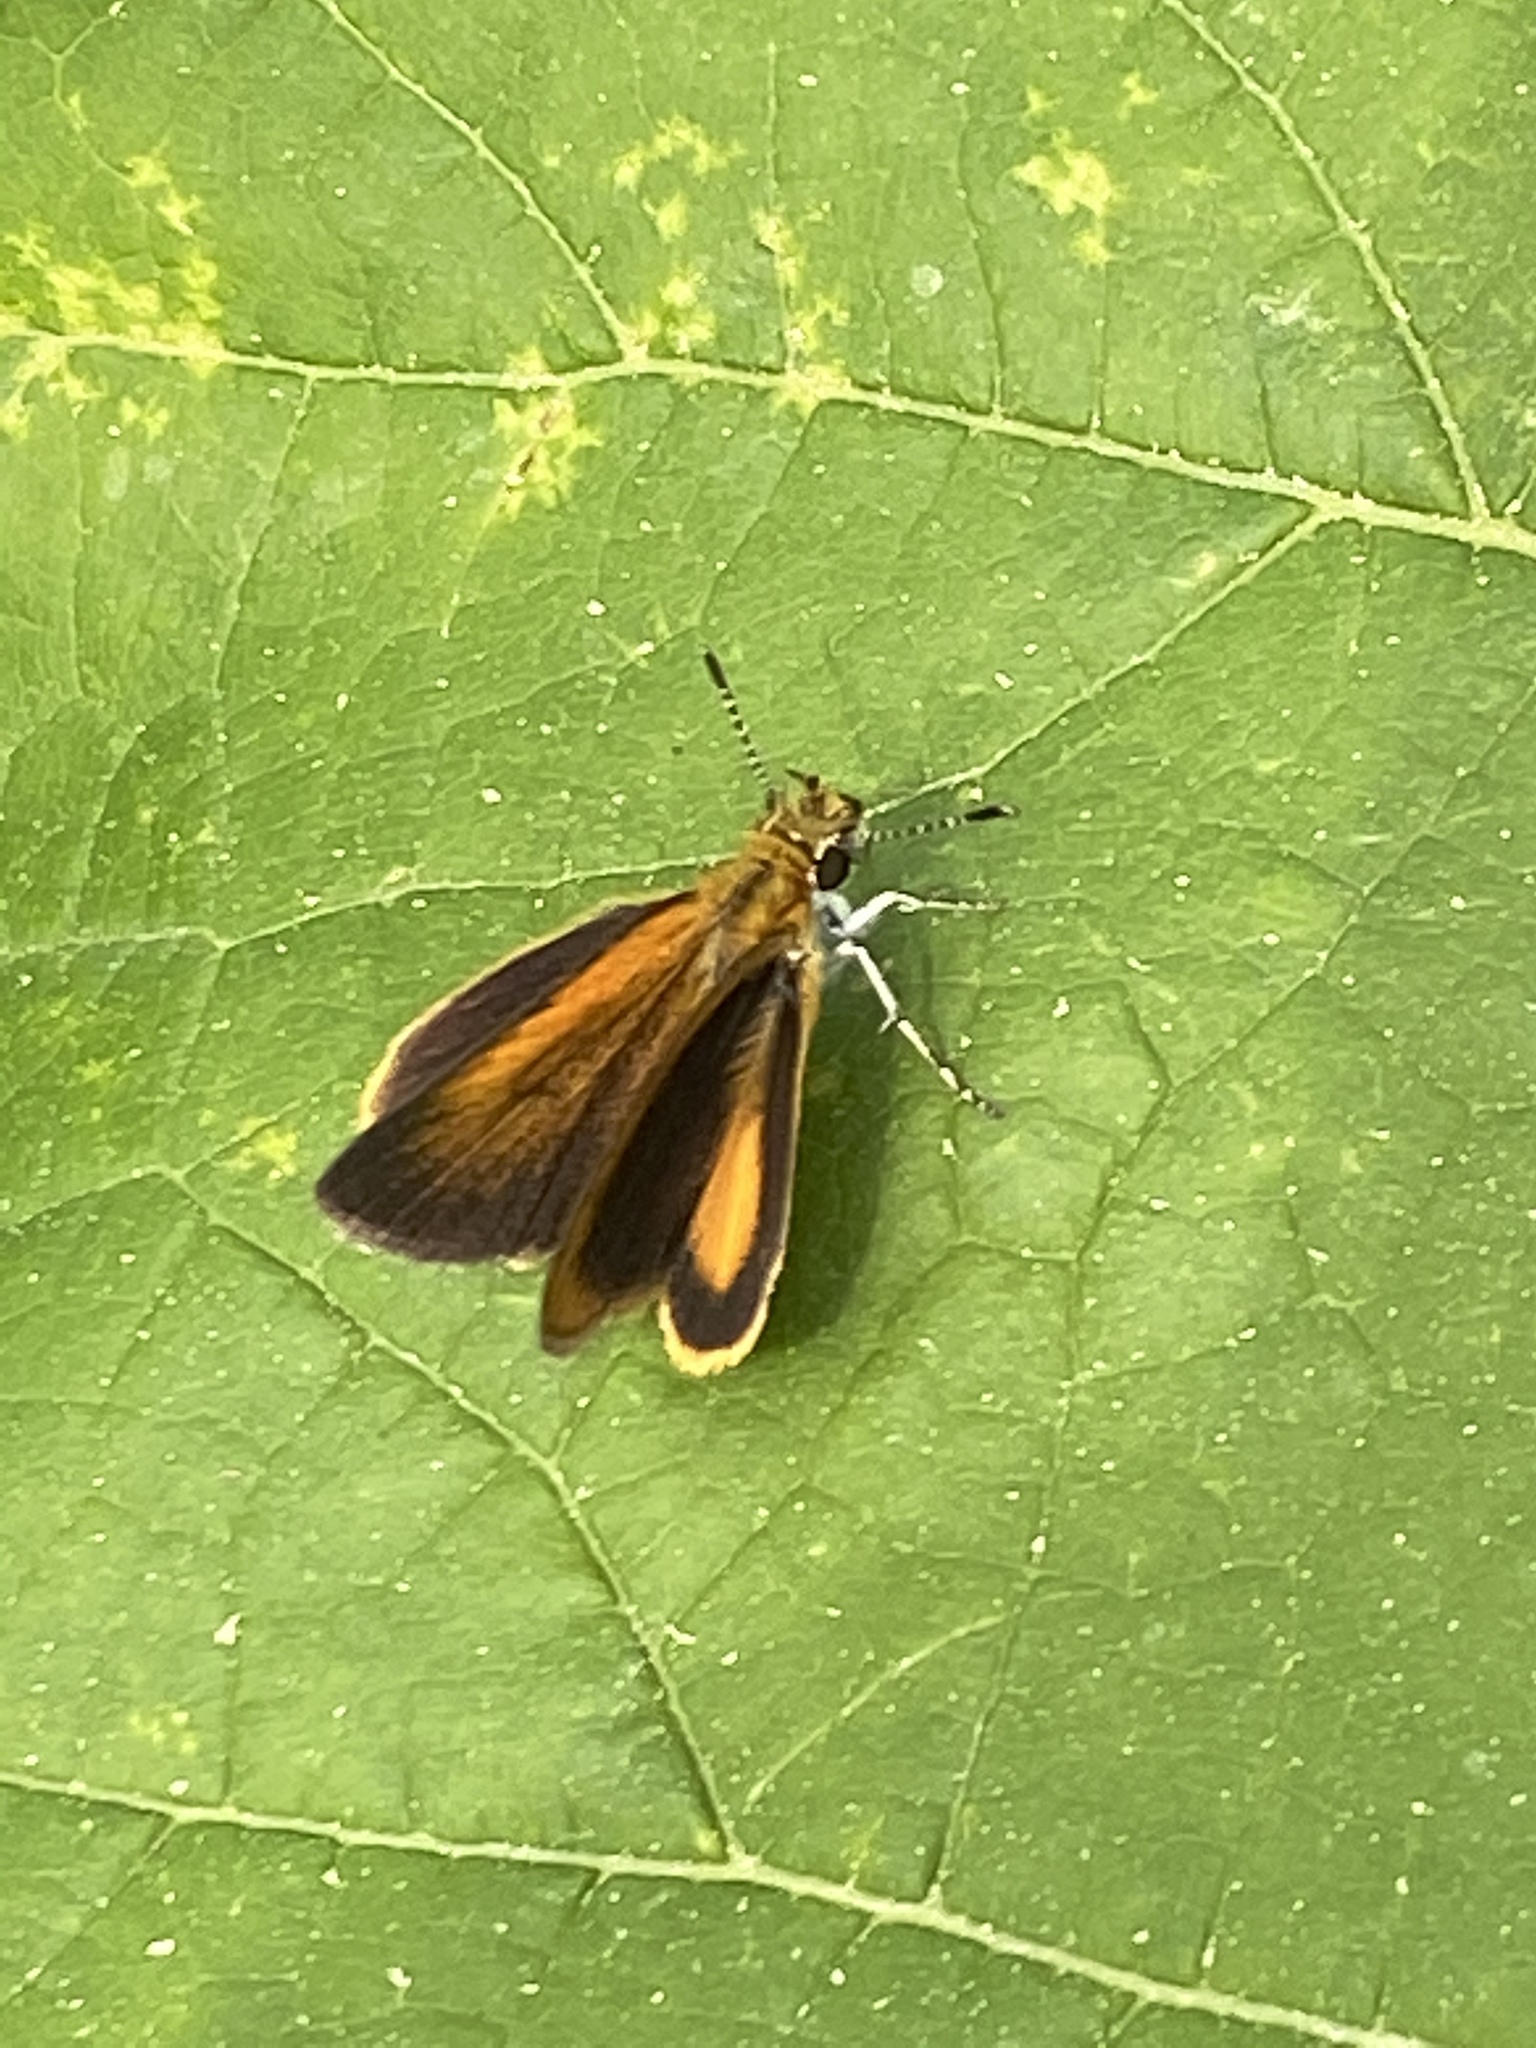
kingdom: Animalia
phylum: Arthropoda
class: Insecta
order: Lepidoptera
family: Hesperiidae
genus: Ancyloxypha
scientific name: Ancyloxypha numitor
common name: Least skipper
